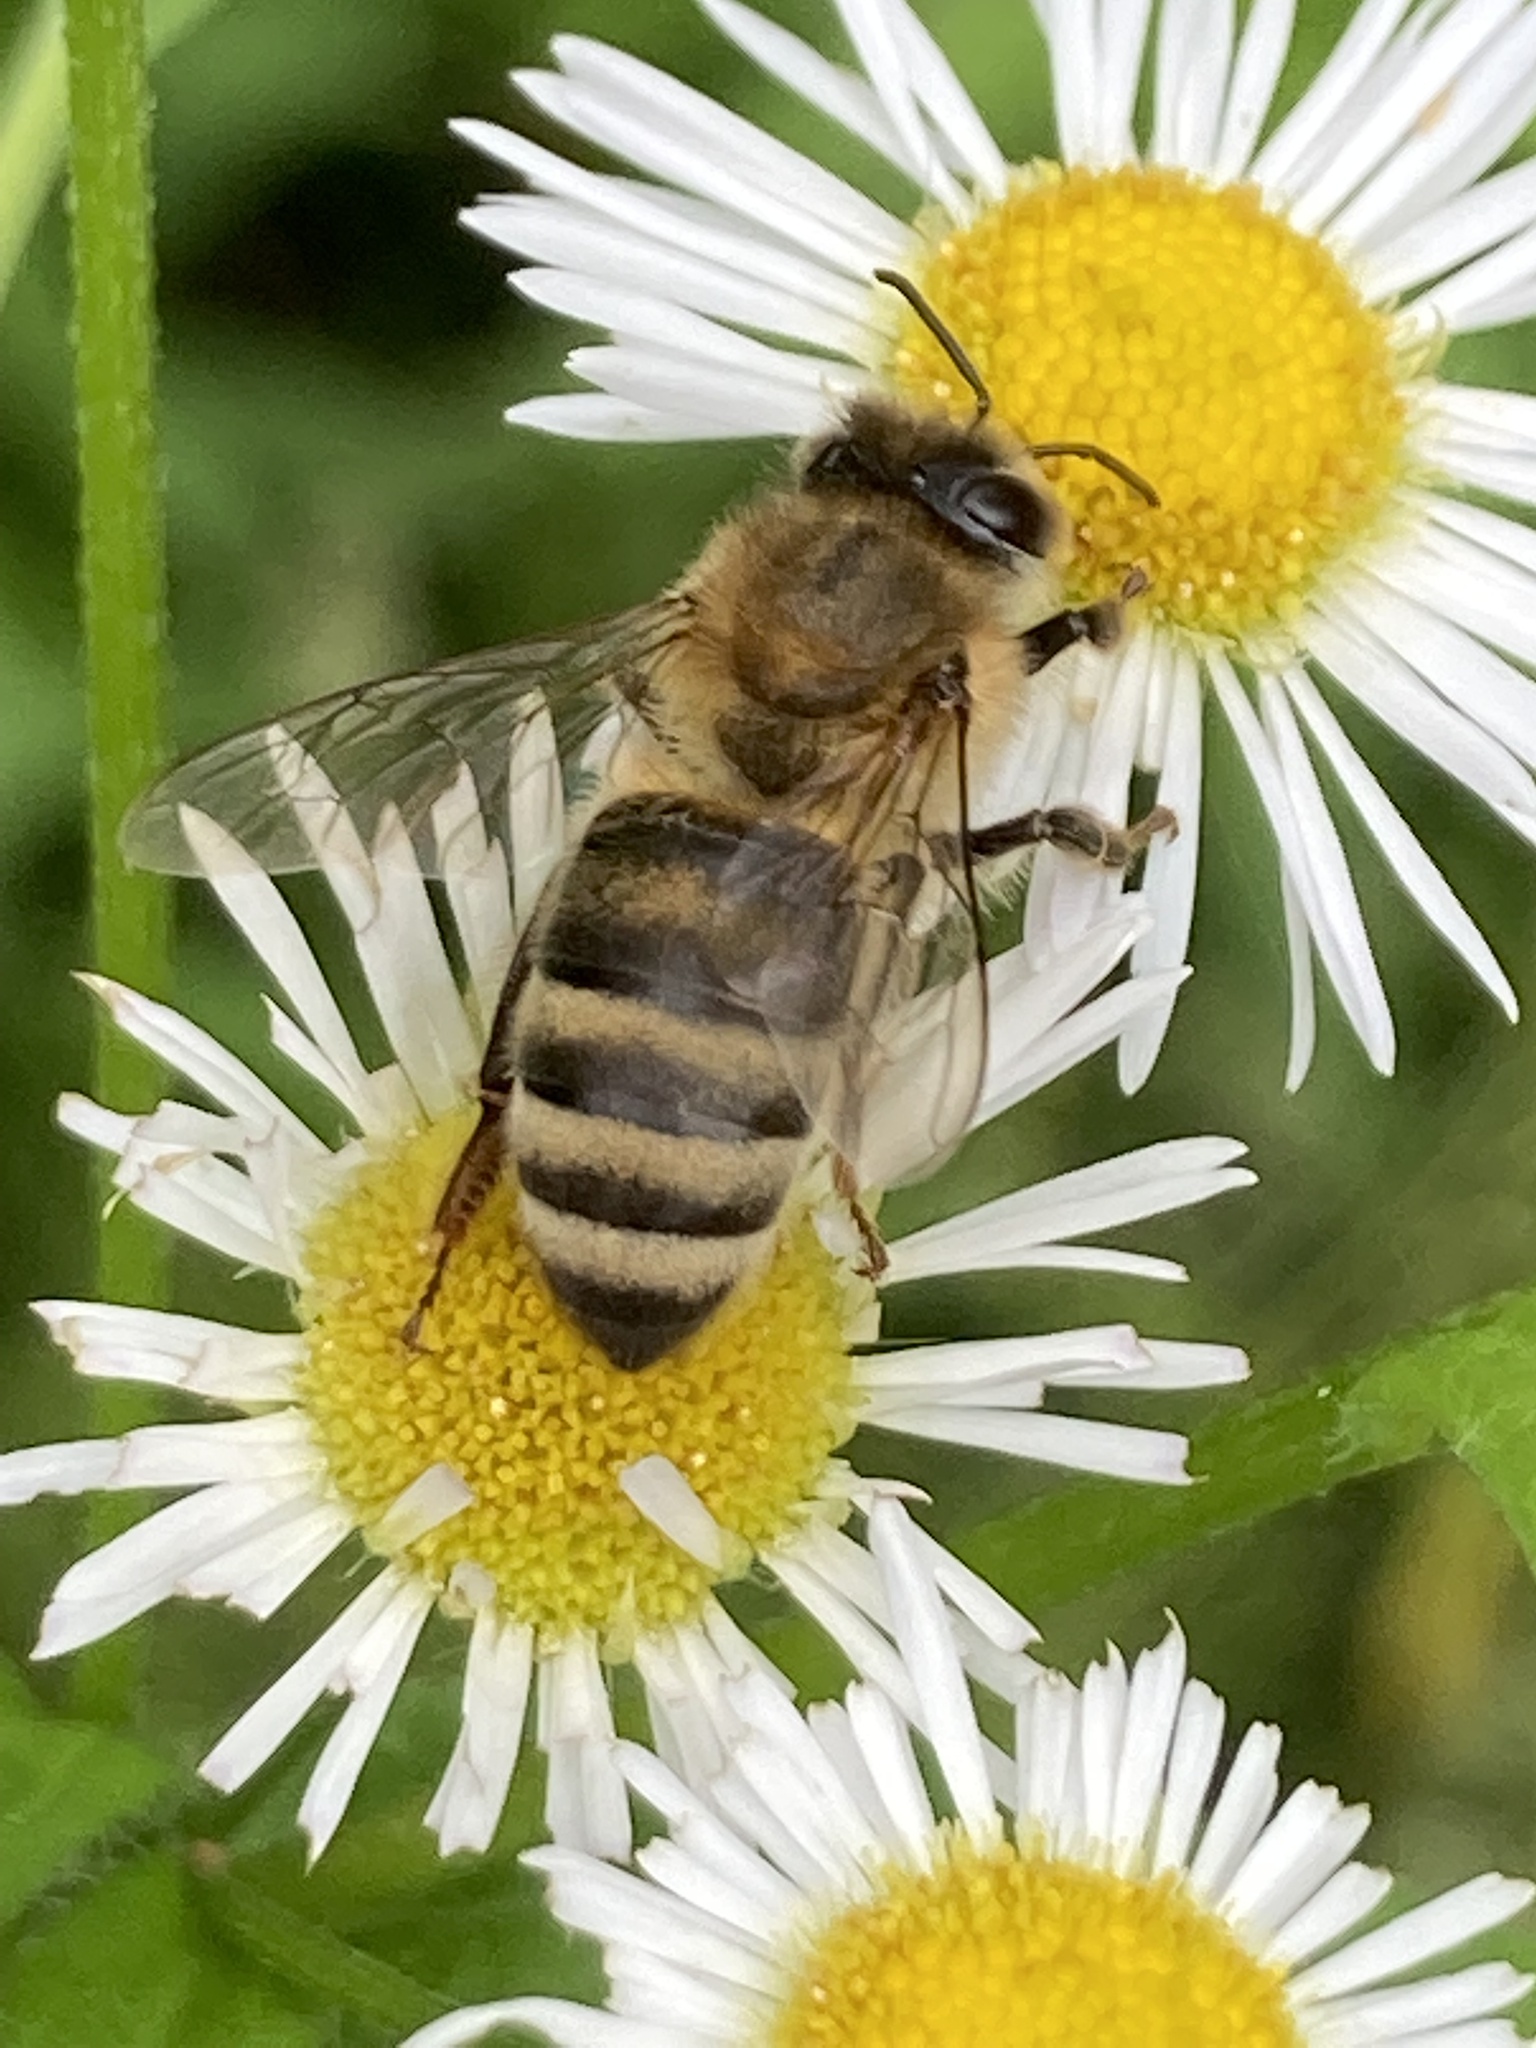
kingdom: Animalia
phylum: Arthropoda
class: Insecta
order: Hymenoptera
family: Apidae
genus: Apis
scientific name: Apis mellifera
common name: Honey bee
